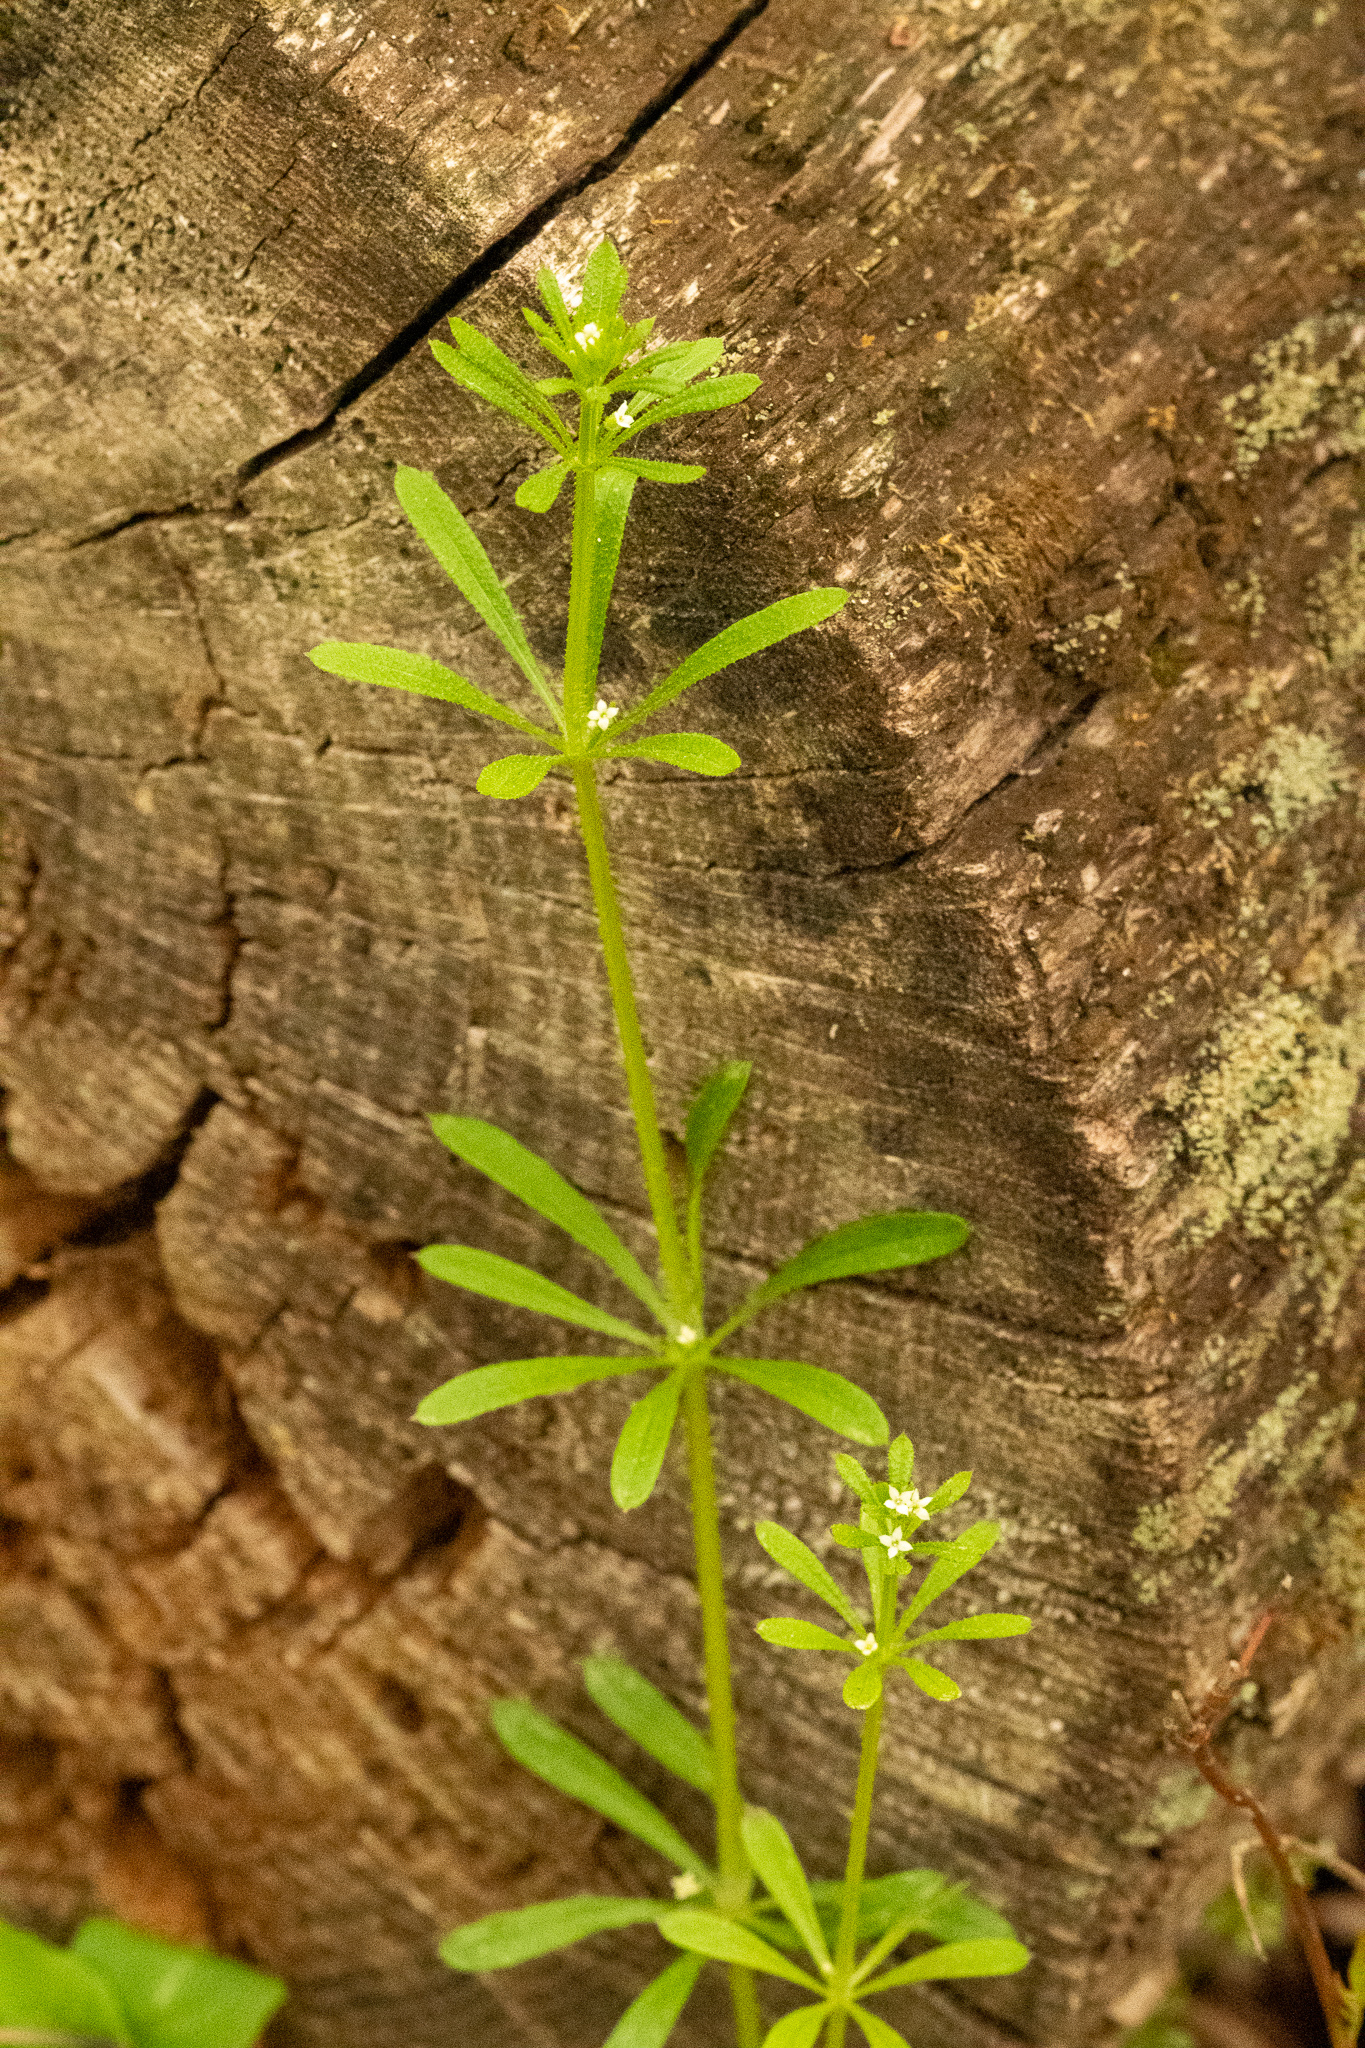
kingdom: Plantae
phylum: Tracheophyta
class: Magnoliopsida
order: Gentianales
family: Rubiaceae
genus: Galium
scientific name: Galium aparine
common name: Cleavers
